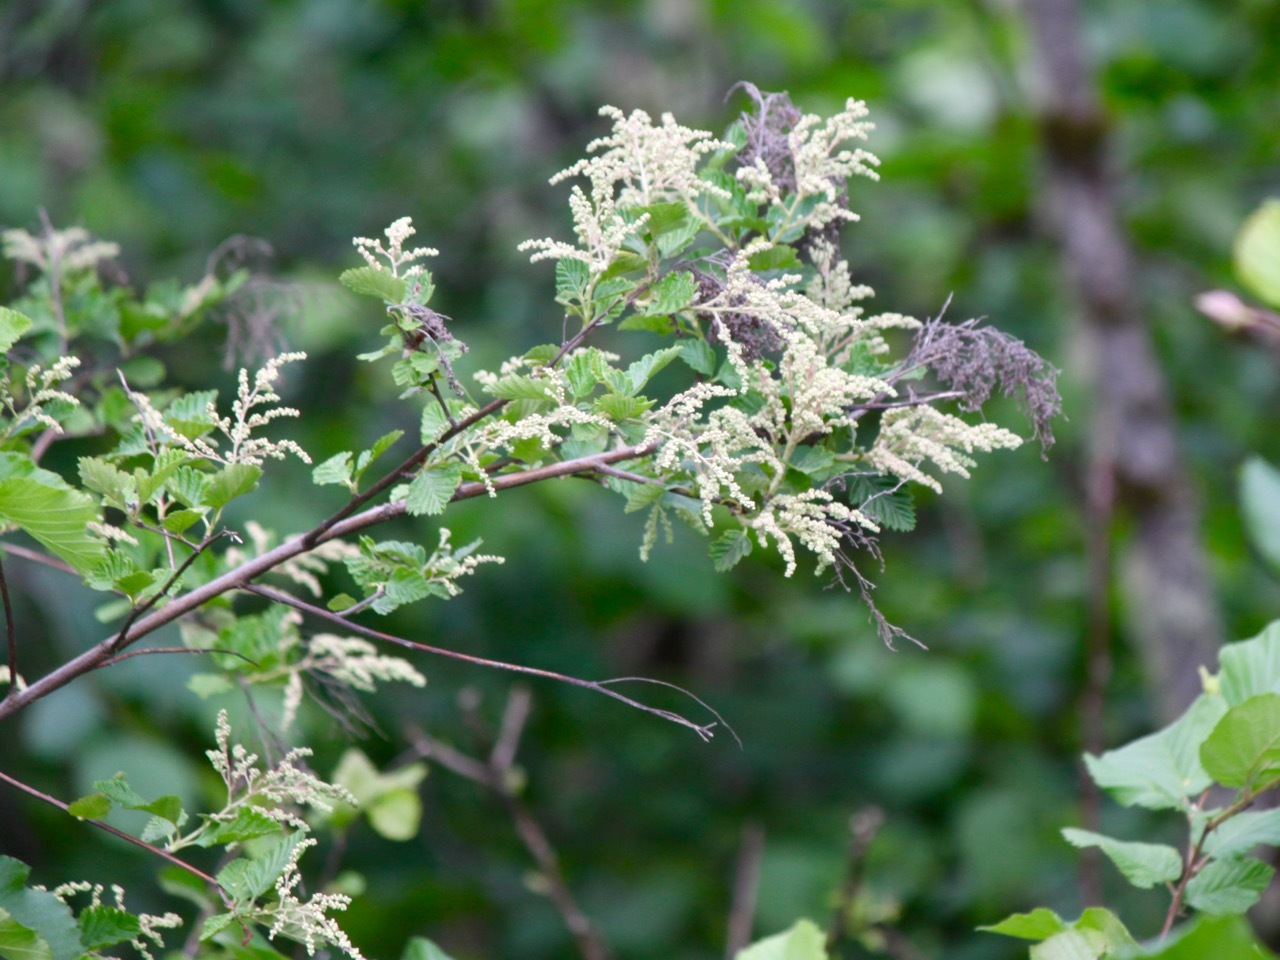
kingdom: Plantae
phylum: Tracheophyta
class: Magnoliopsida
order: Rosales
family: Rosaceae
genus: Holodiscus
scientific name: Holodiscus discolor
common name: Oceanspray
